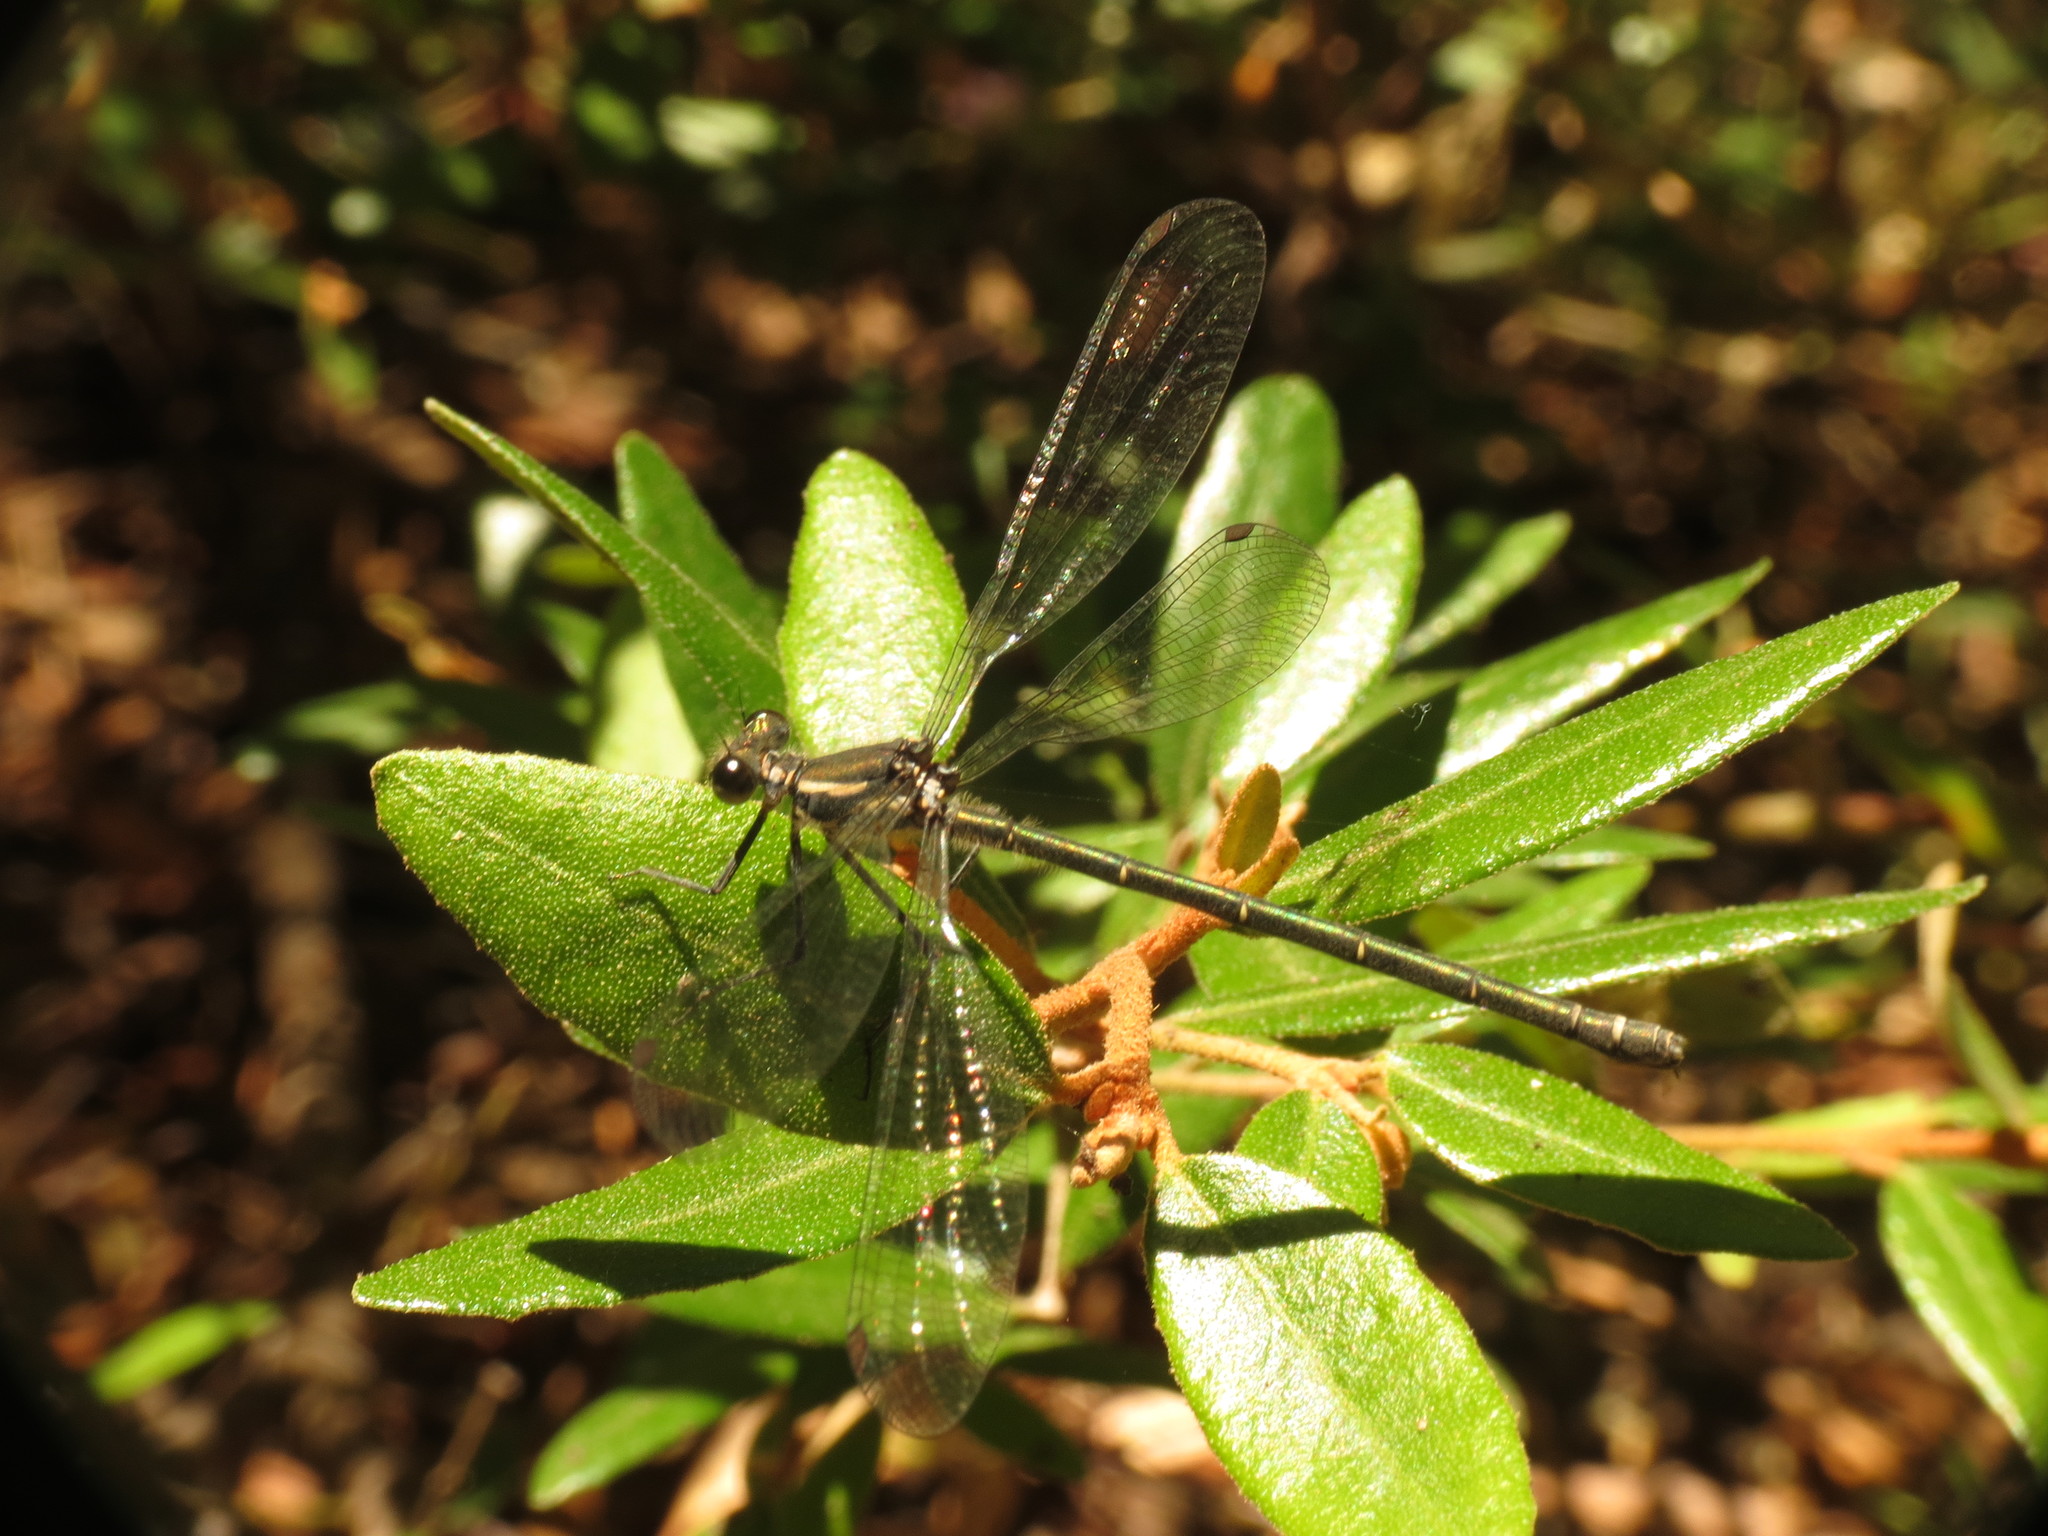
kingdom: Animalia
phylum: Arthropoda
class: Insecta
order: Odonata
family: Argiolestidae
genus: Austroargiolestes
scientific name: Austroargiolestes icteromelas
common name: Common flatwing
